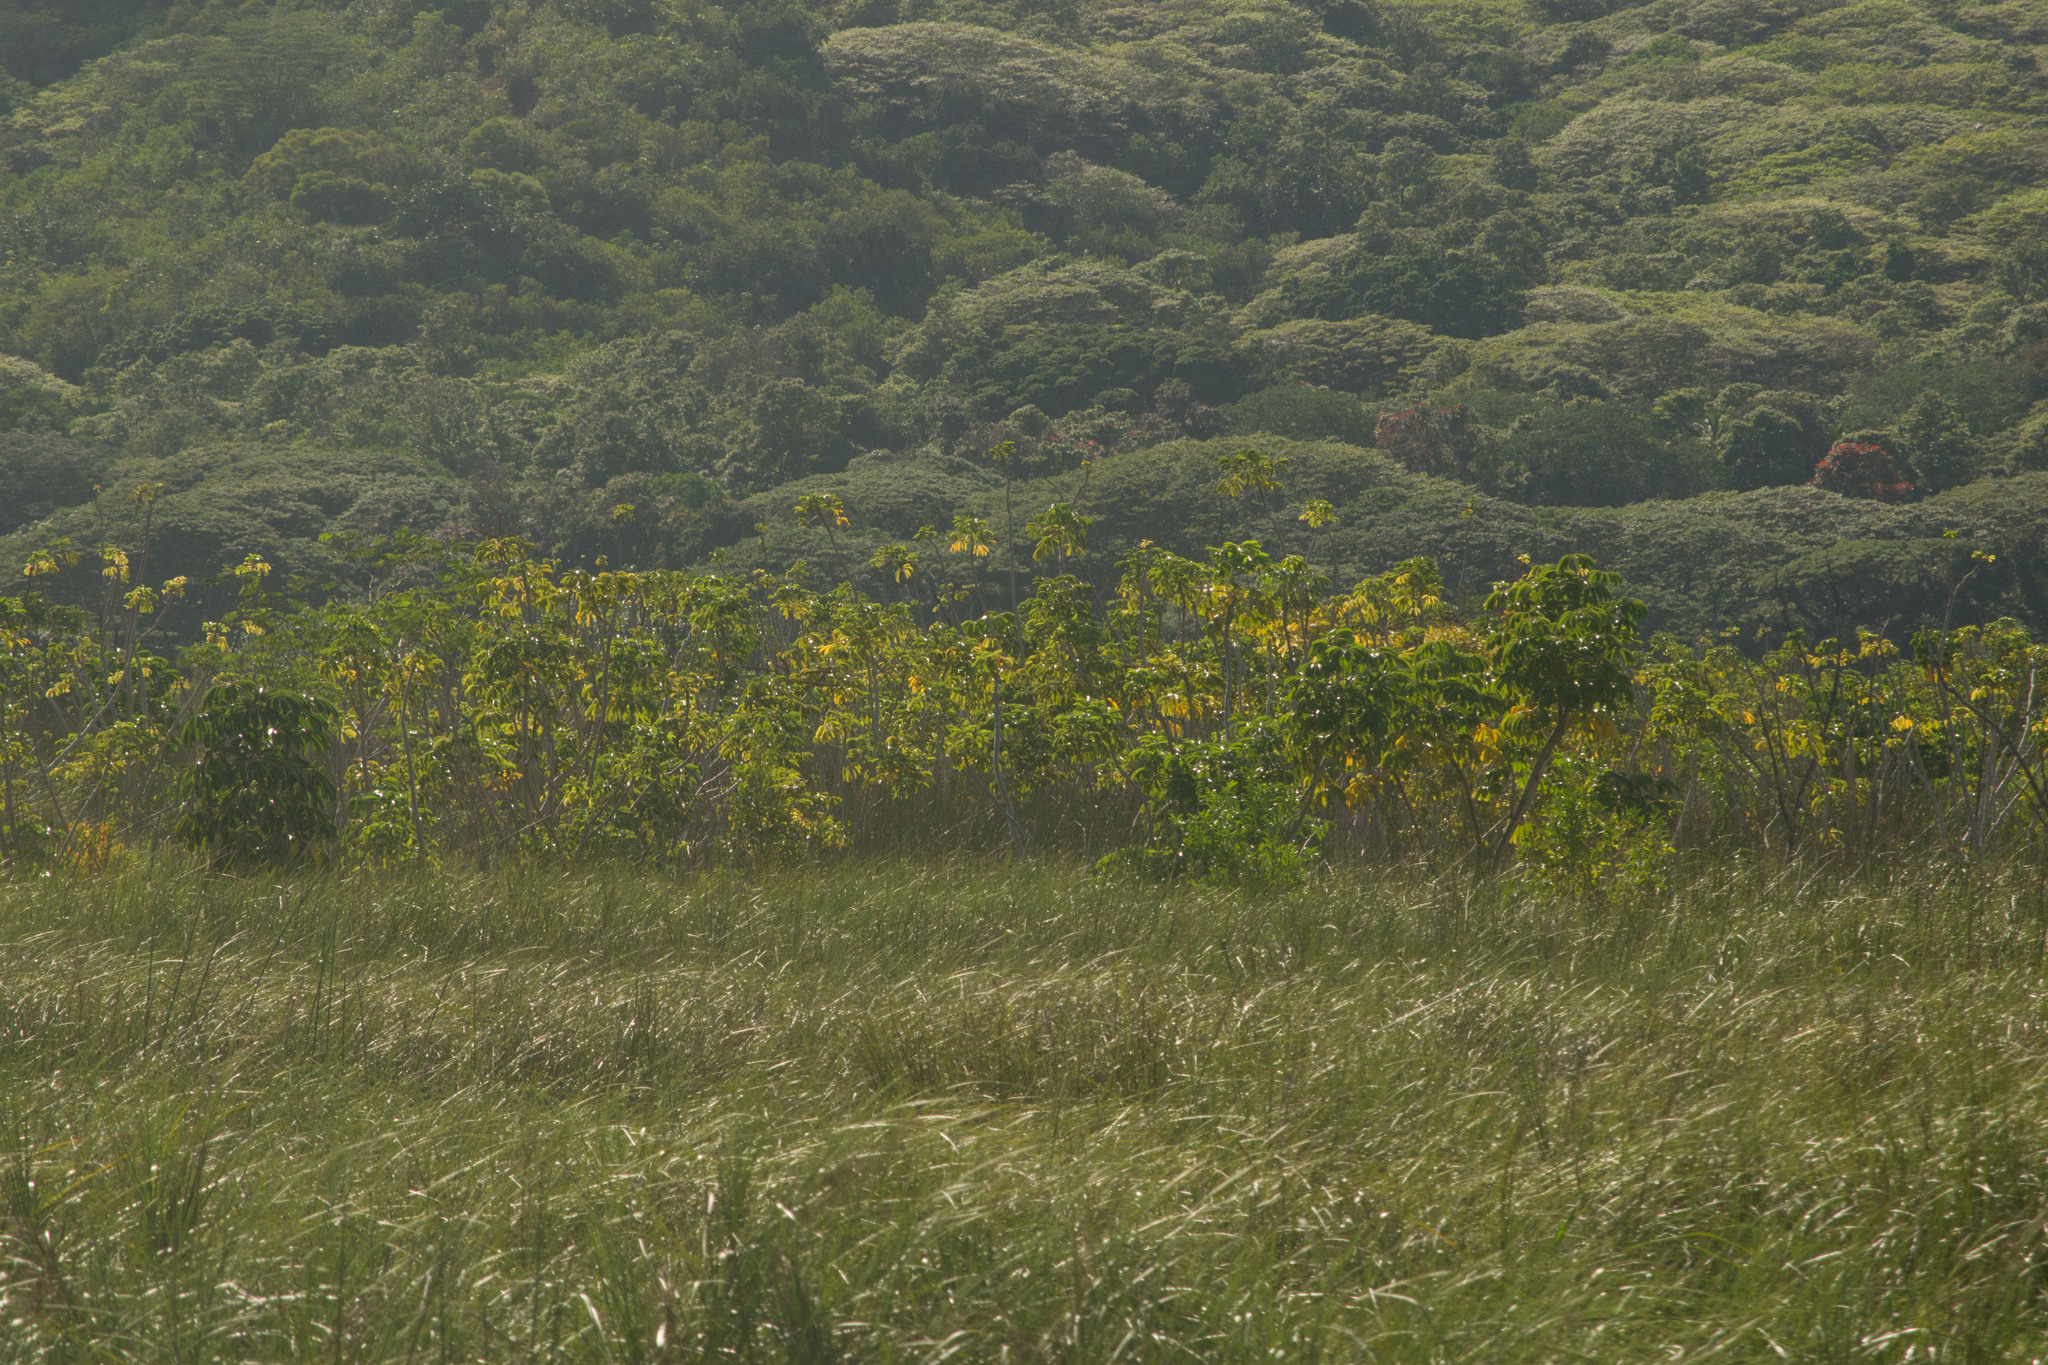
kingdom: Plantae
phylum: Tracheophyta
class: Magnoliopsida
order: Apiales
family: Araliaceae
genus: Heptapleurum
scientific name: Heptapleurum actinophyllum
